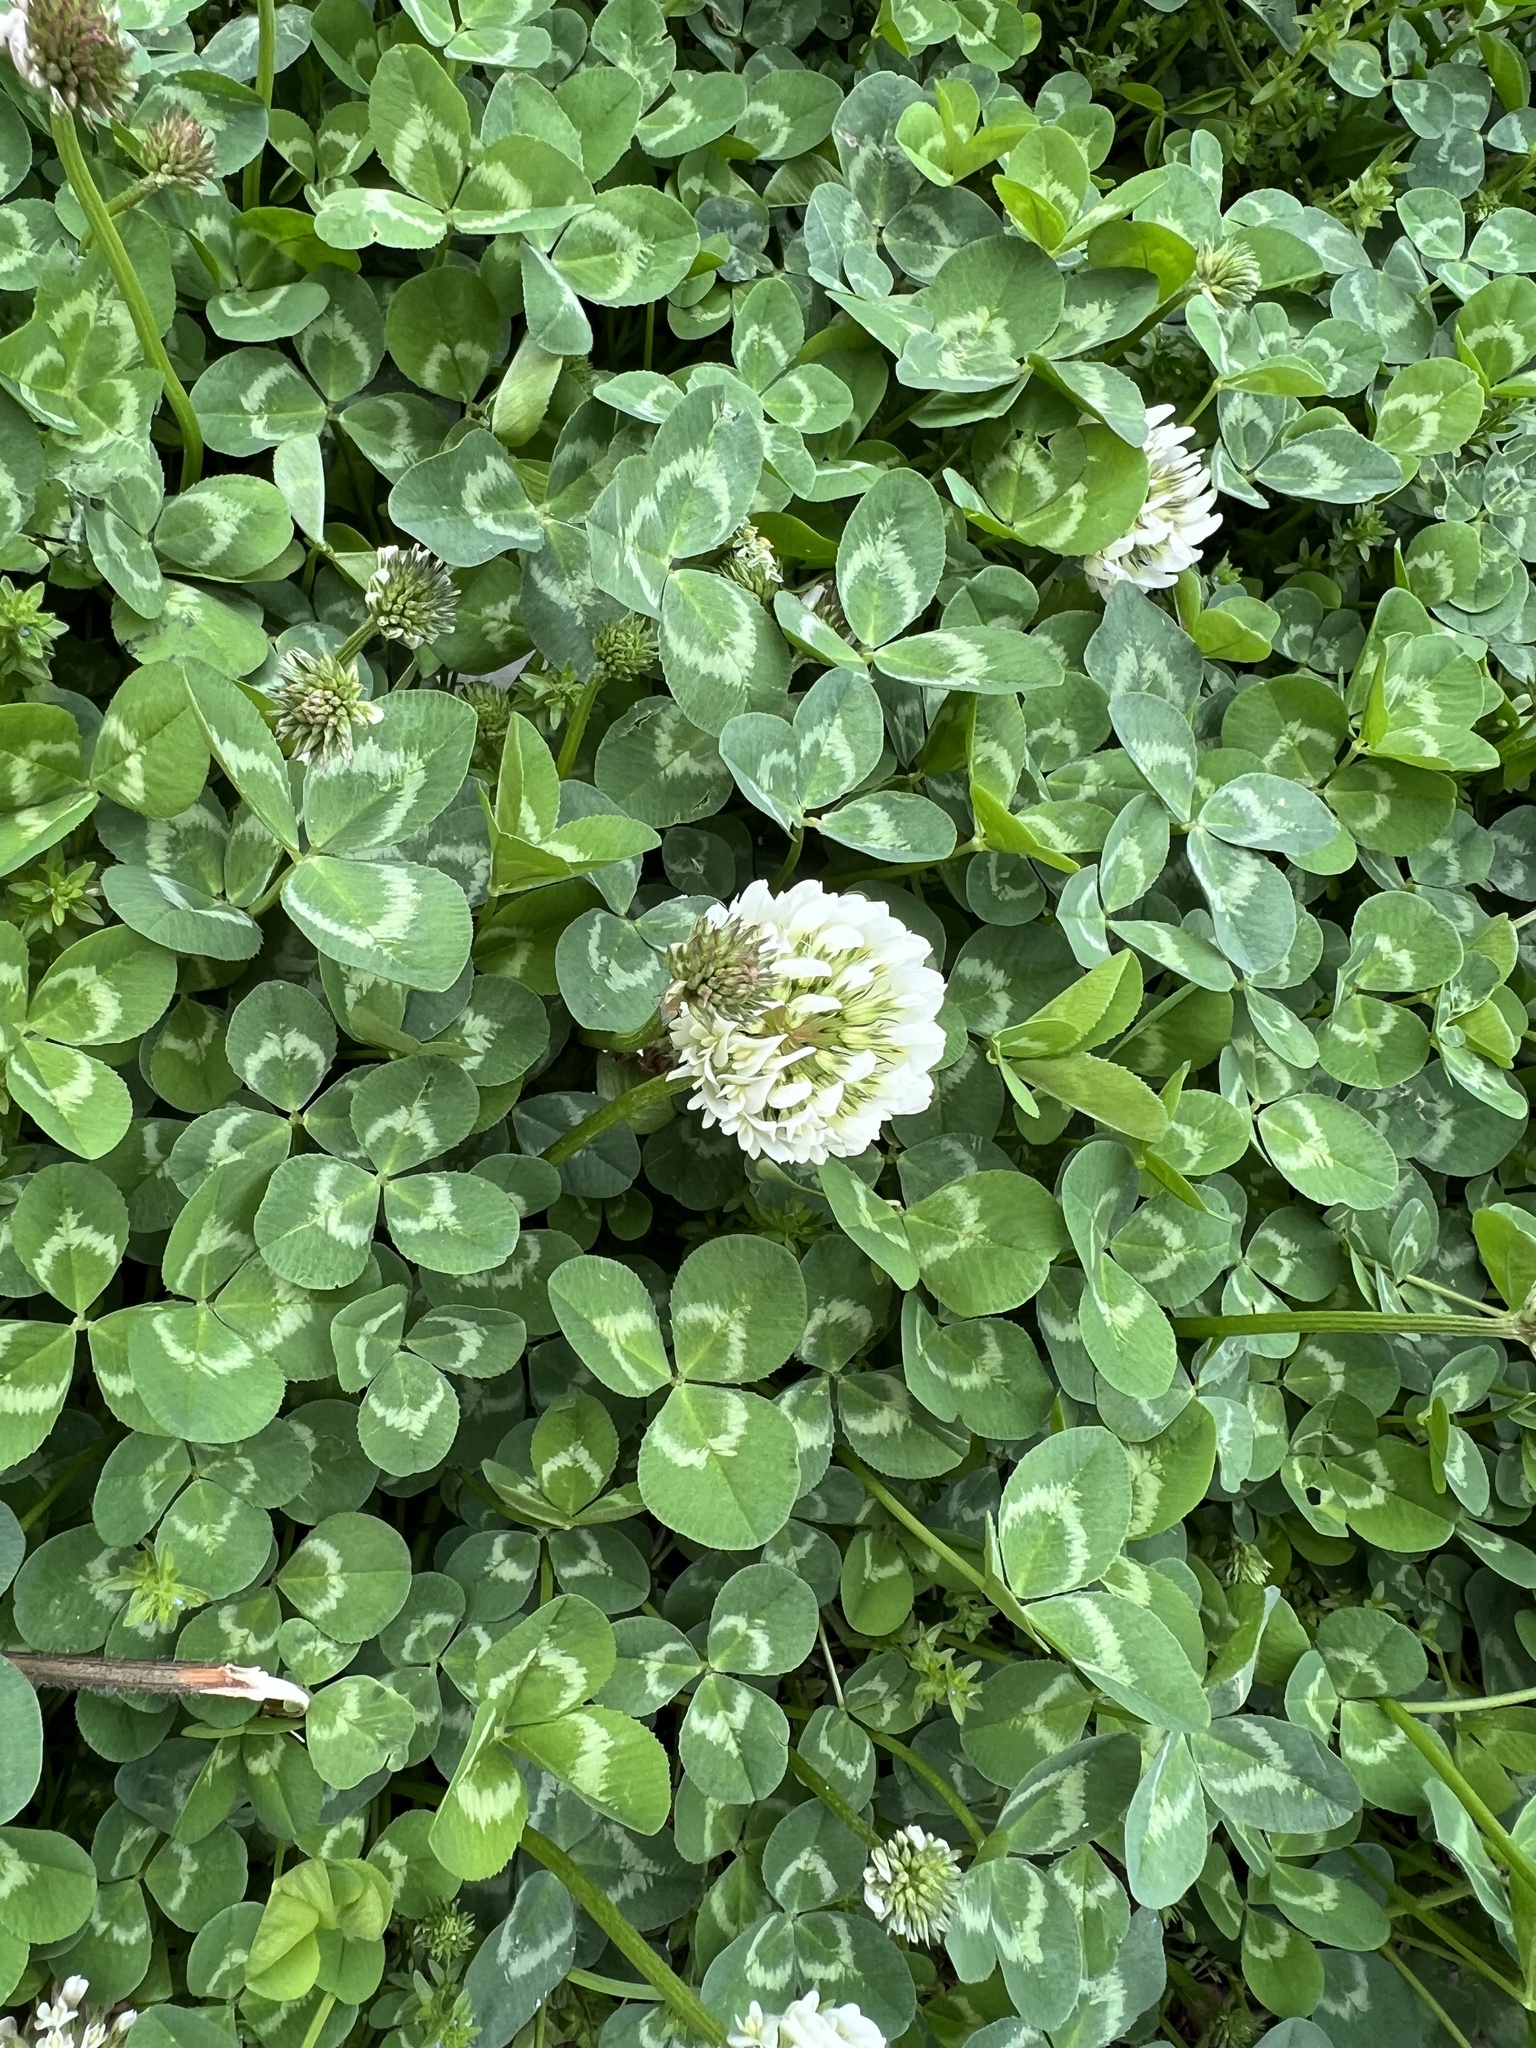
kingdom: Plantae
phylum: Tracheophyta
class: Magnoliopsida
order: Fabales
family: Fabaceae
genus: Trifolium
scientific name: Trifolium repens
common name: White clover
